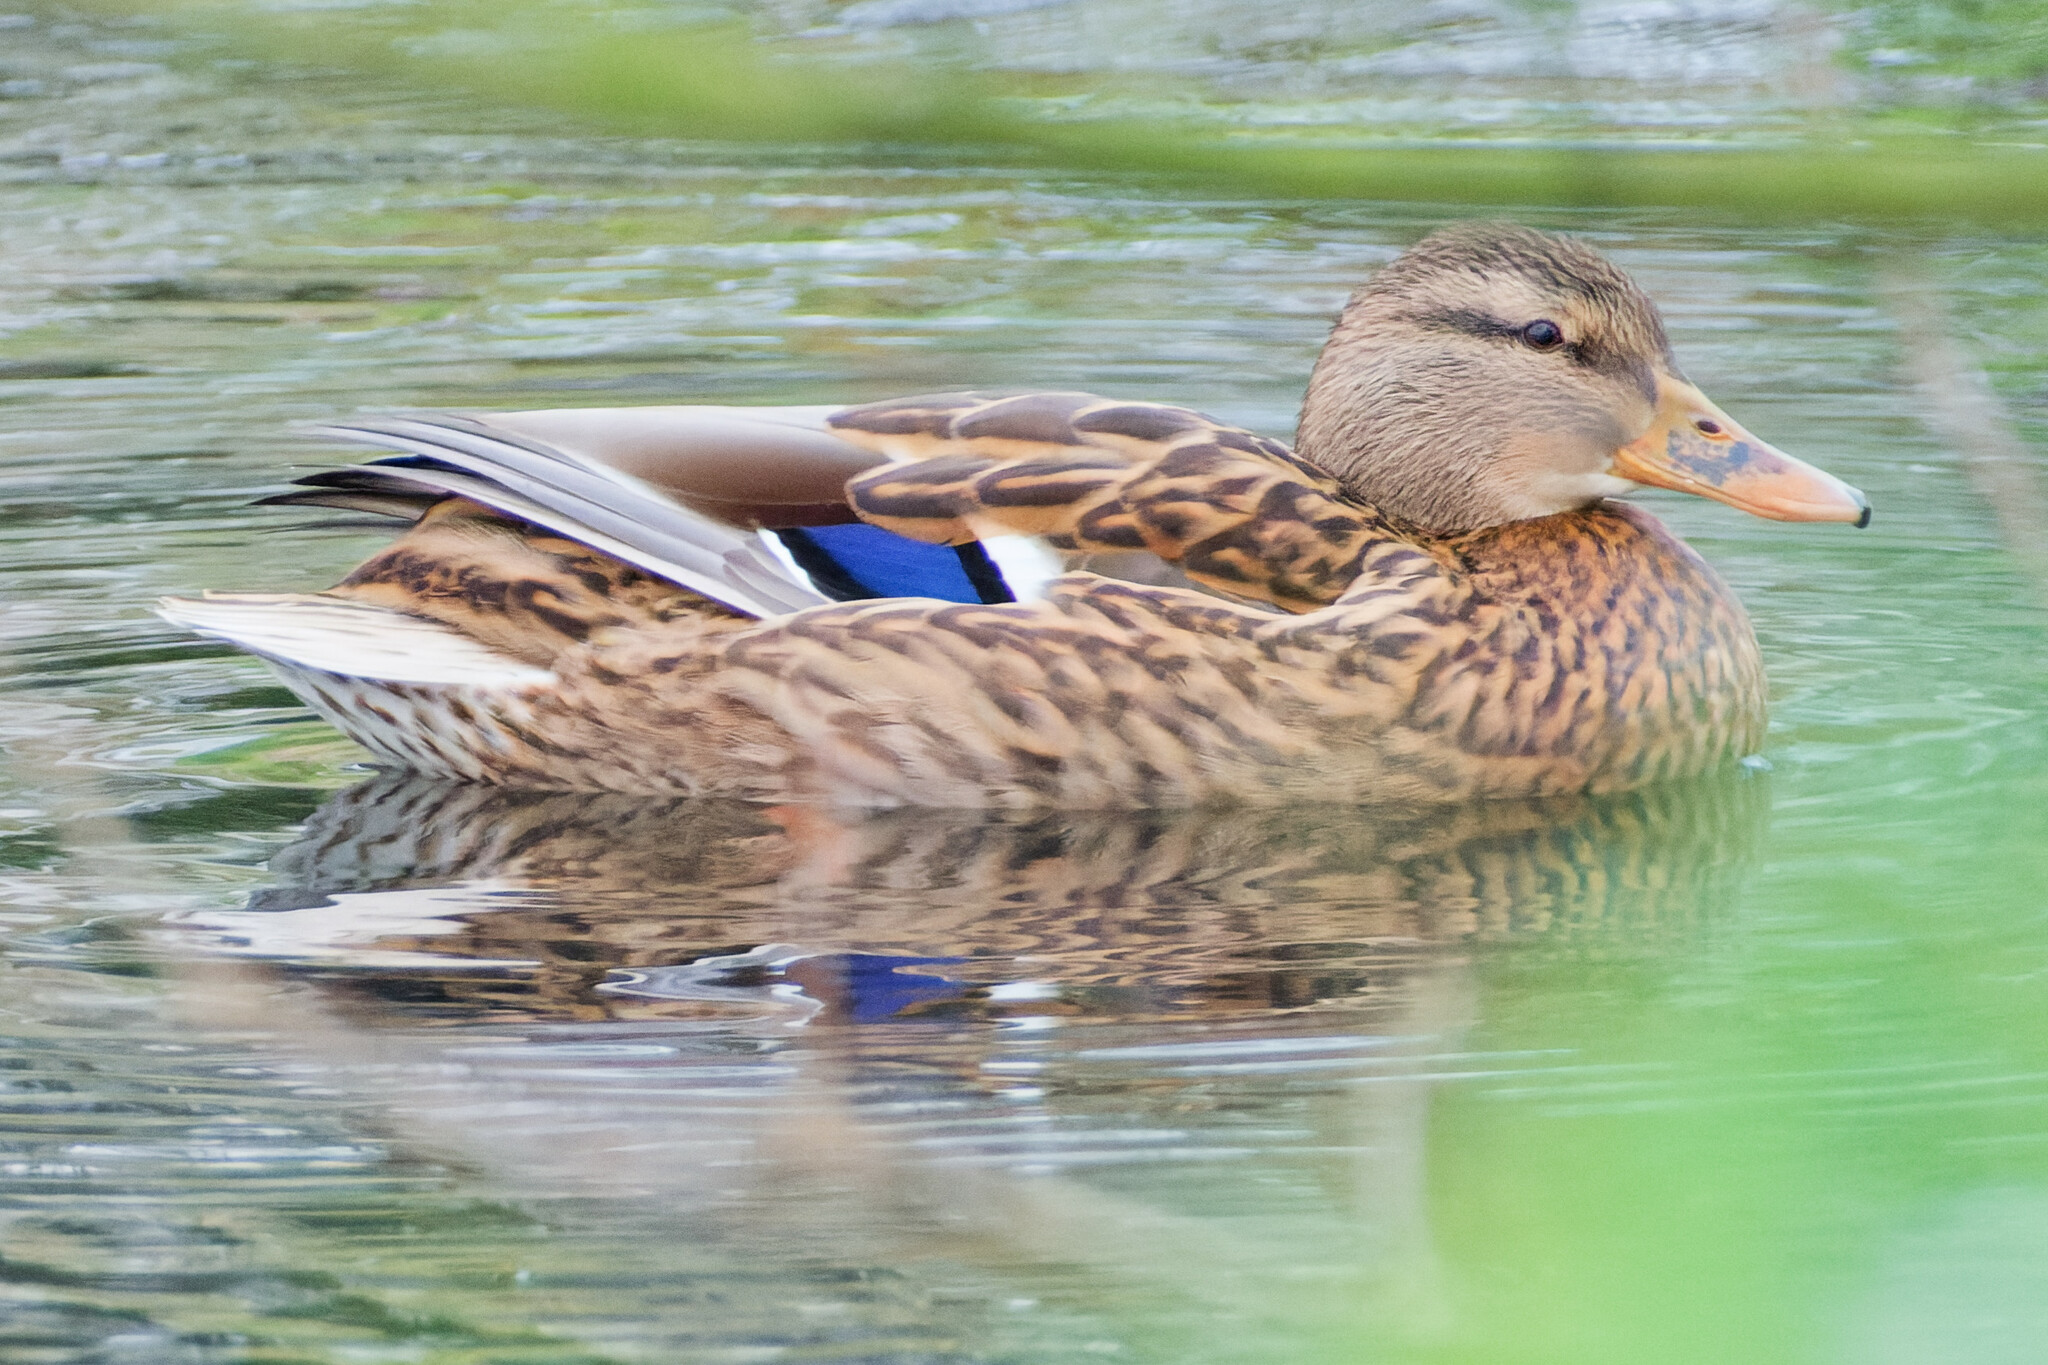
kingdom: Animalia
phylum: Chordata
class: Aves
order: Anseriformes
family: Anatidae
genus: Anas
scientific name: Anas platyrhynchos
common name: Mallard
